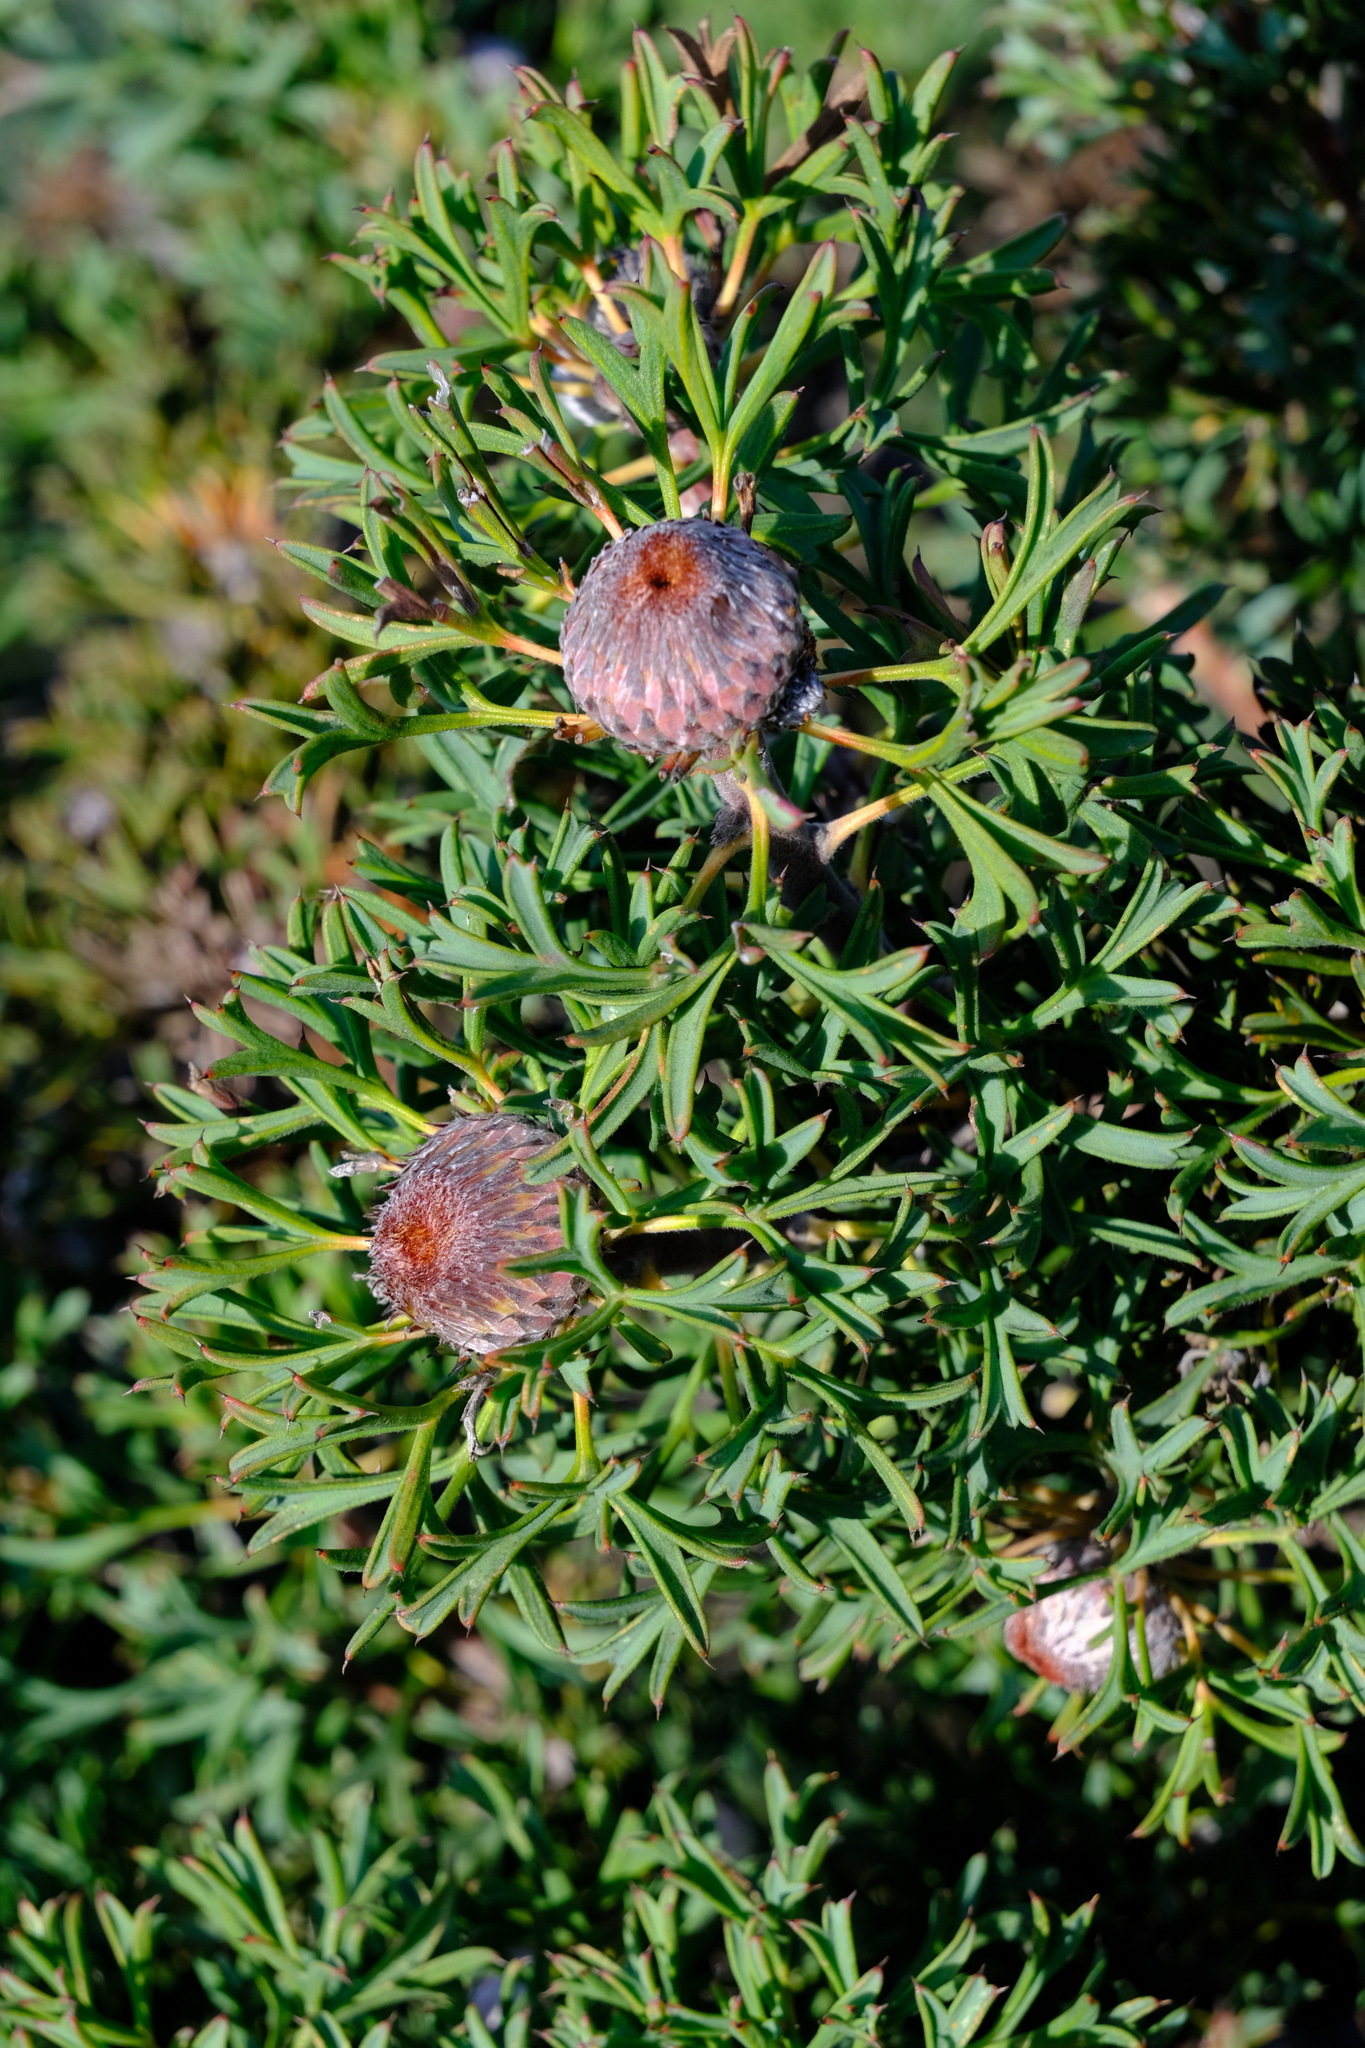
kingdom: Plantae
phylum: Tracheophyta
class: Magnoliopsida
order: Proteales
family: Proteaceae
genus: Isopogon
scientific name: Isopogon dubius
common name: Pincushion-coneflower
